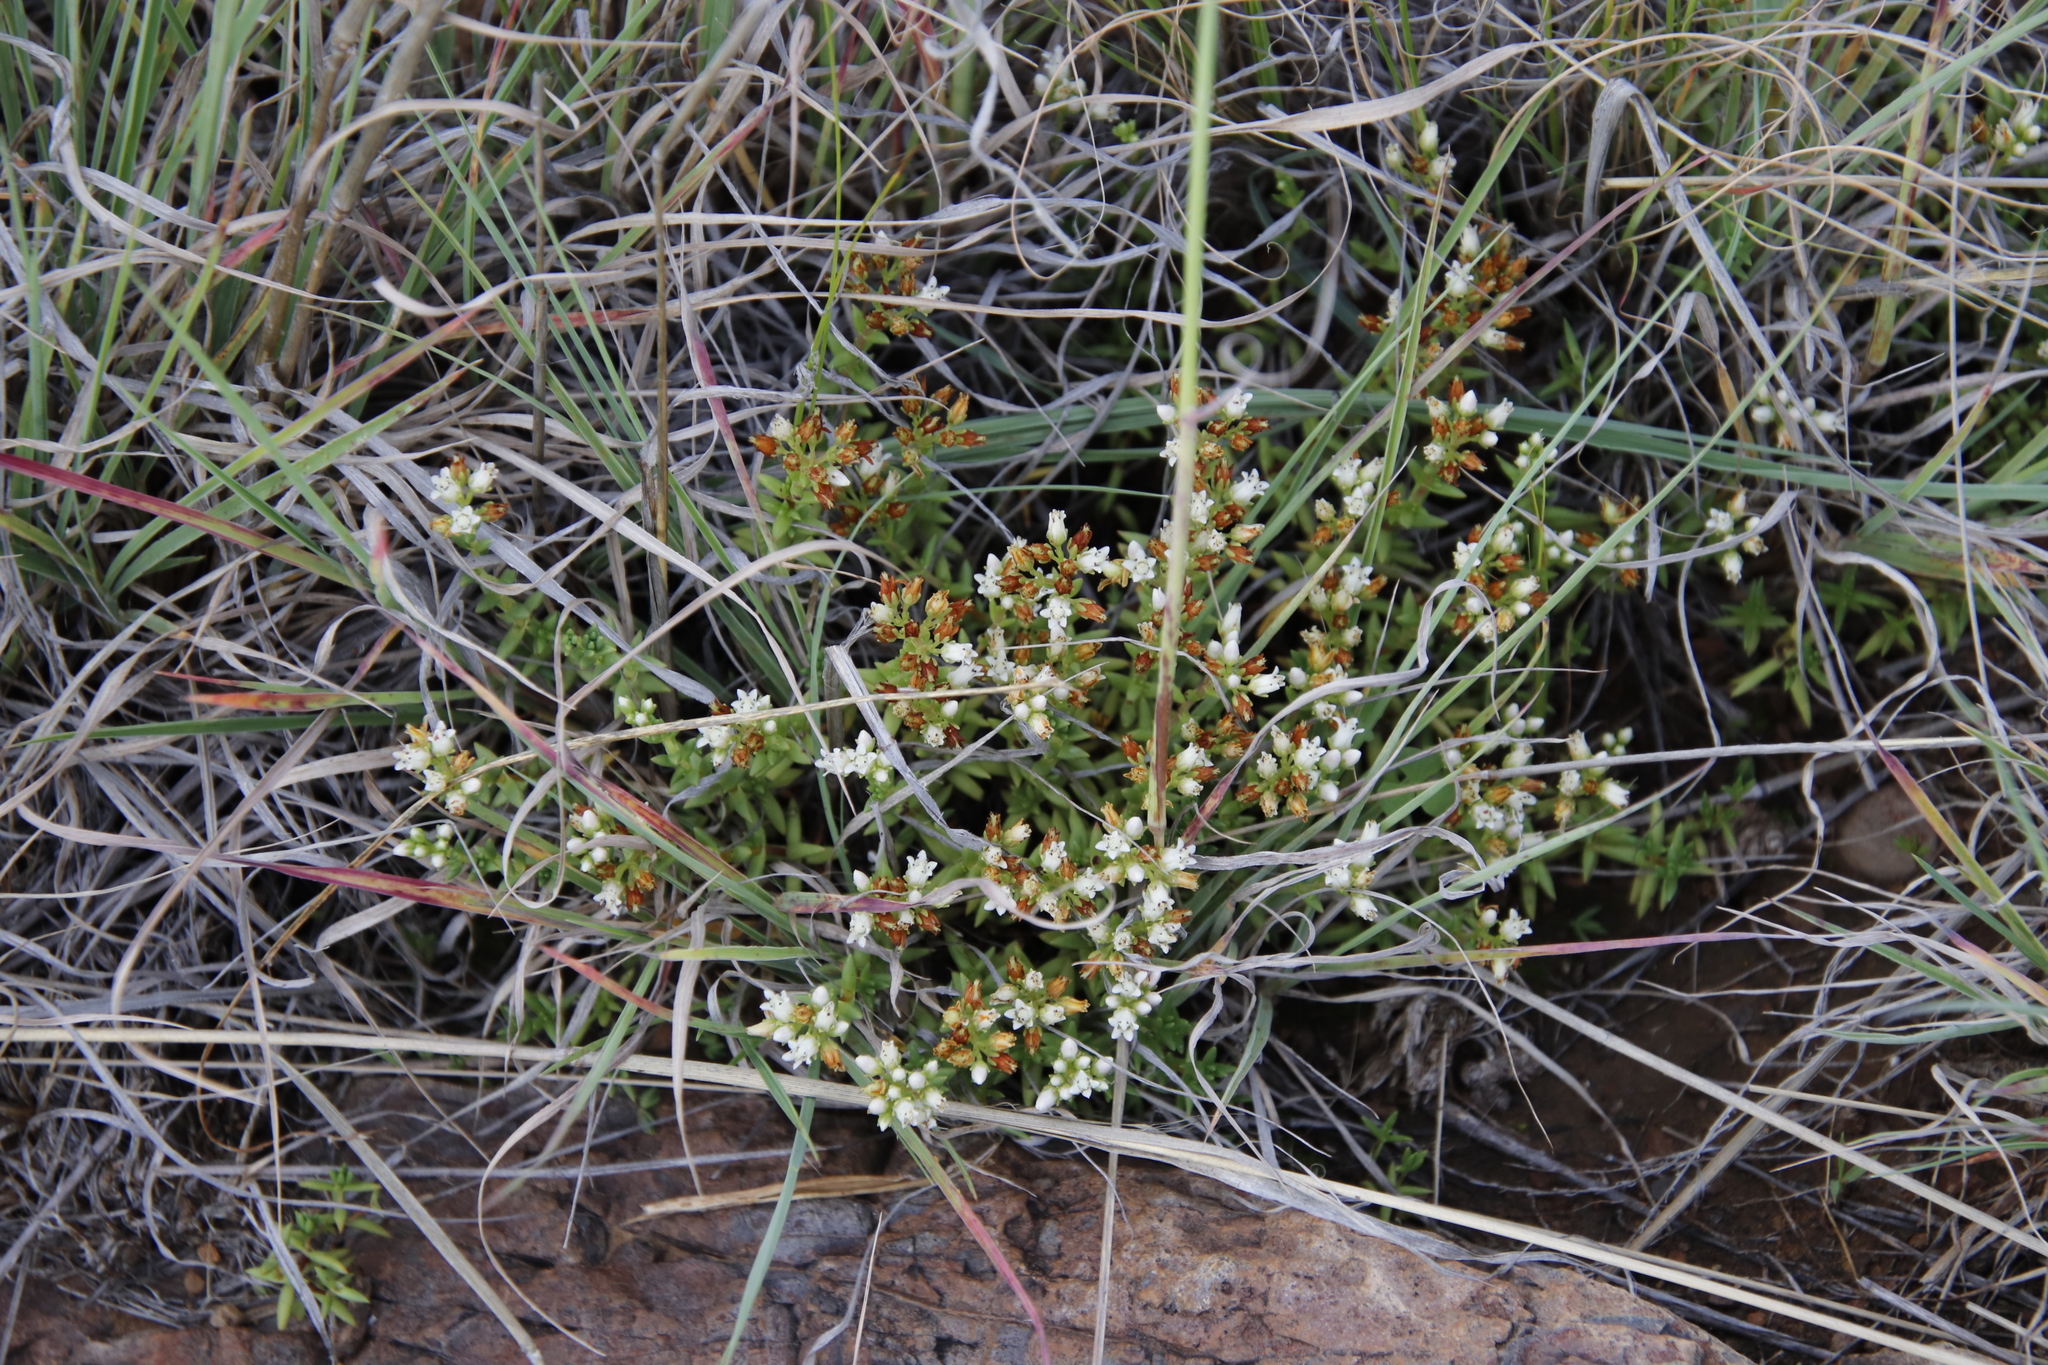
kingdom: Plantae
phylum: Tracheophyta
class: Magnoliopsida
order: Saxifragales
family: Crassulaceae
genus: Crassula
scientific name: Crassula dependens
